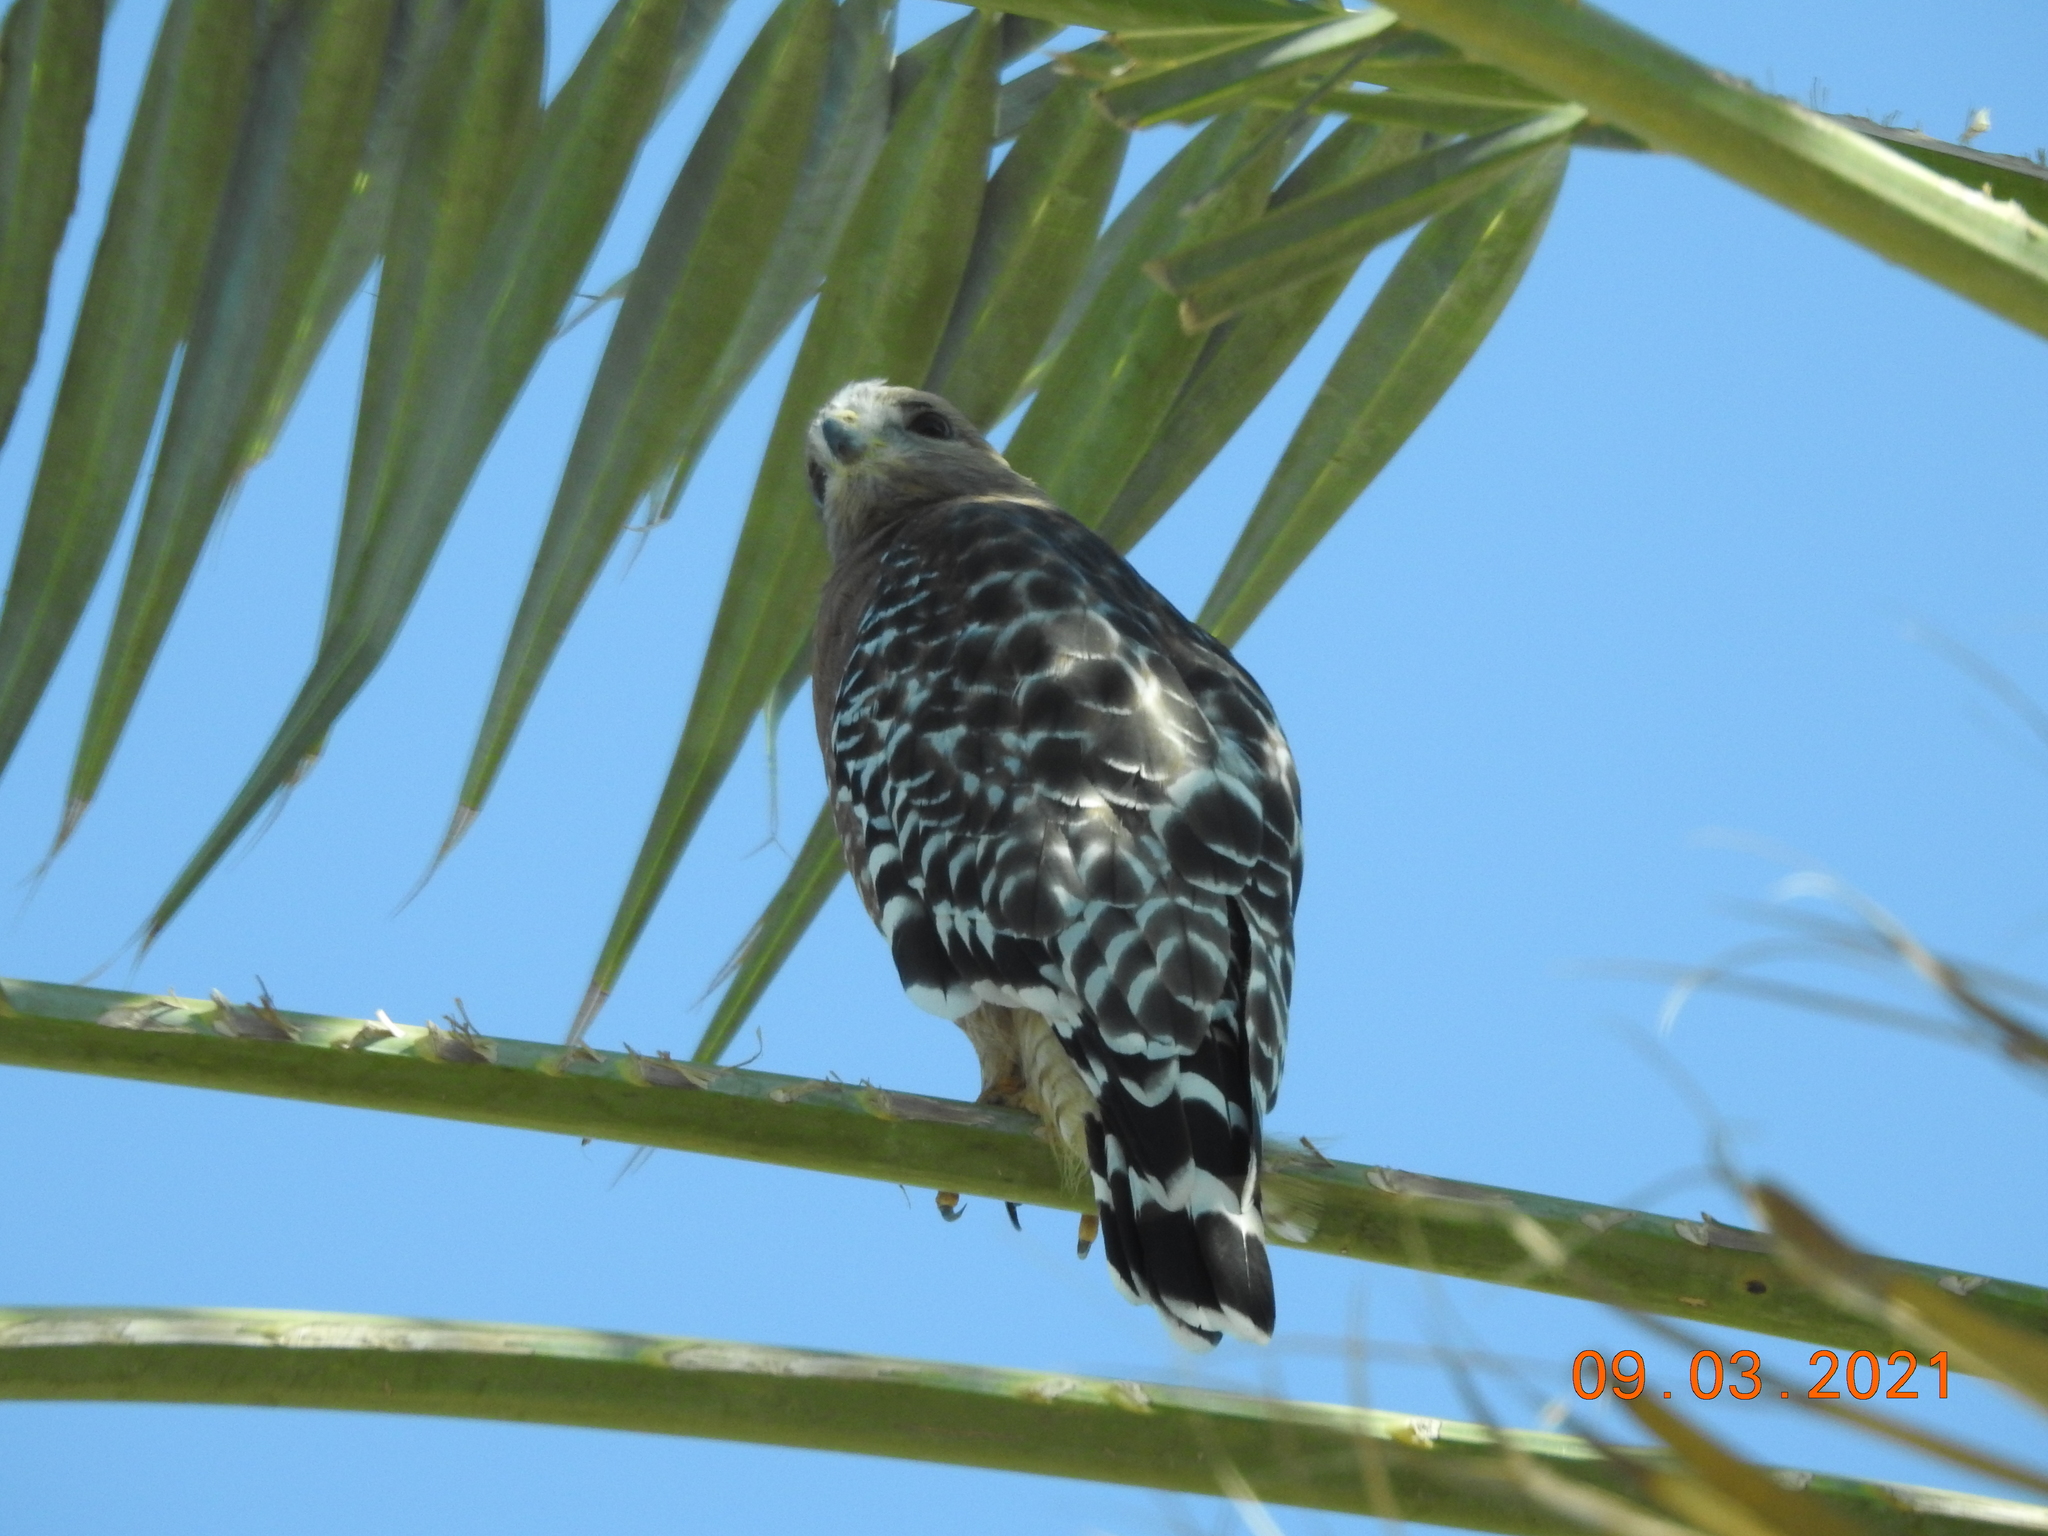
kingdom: Animalia
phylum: Chordata
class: Aves
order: Accipitriformes
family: Accipitridae
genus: Buteo
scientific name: Buteo lineatus
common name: Red-shouldered hawk
